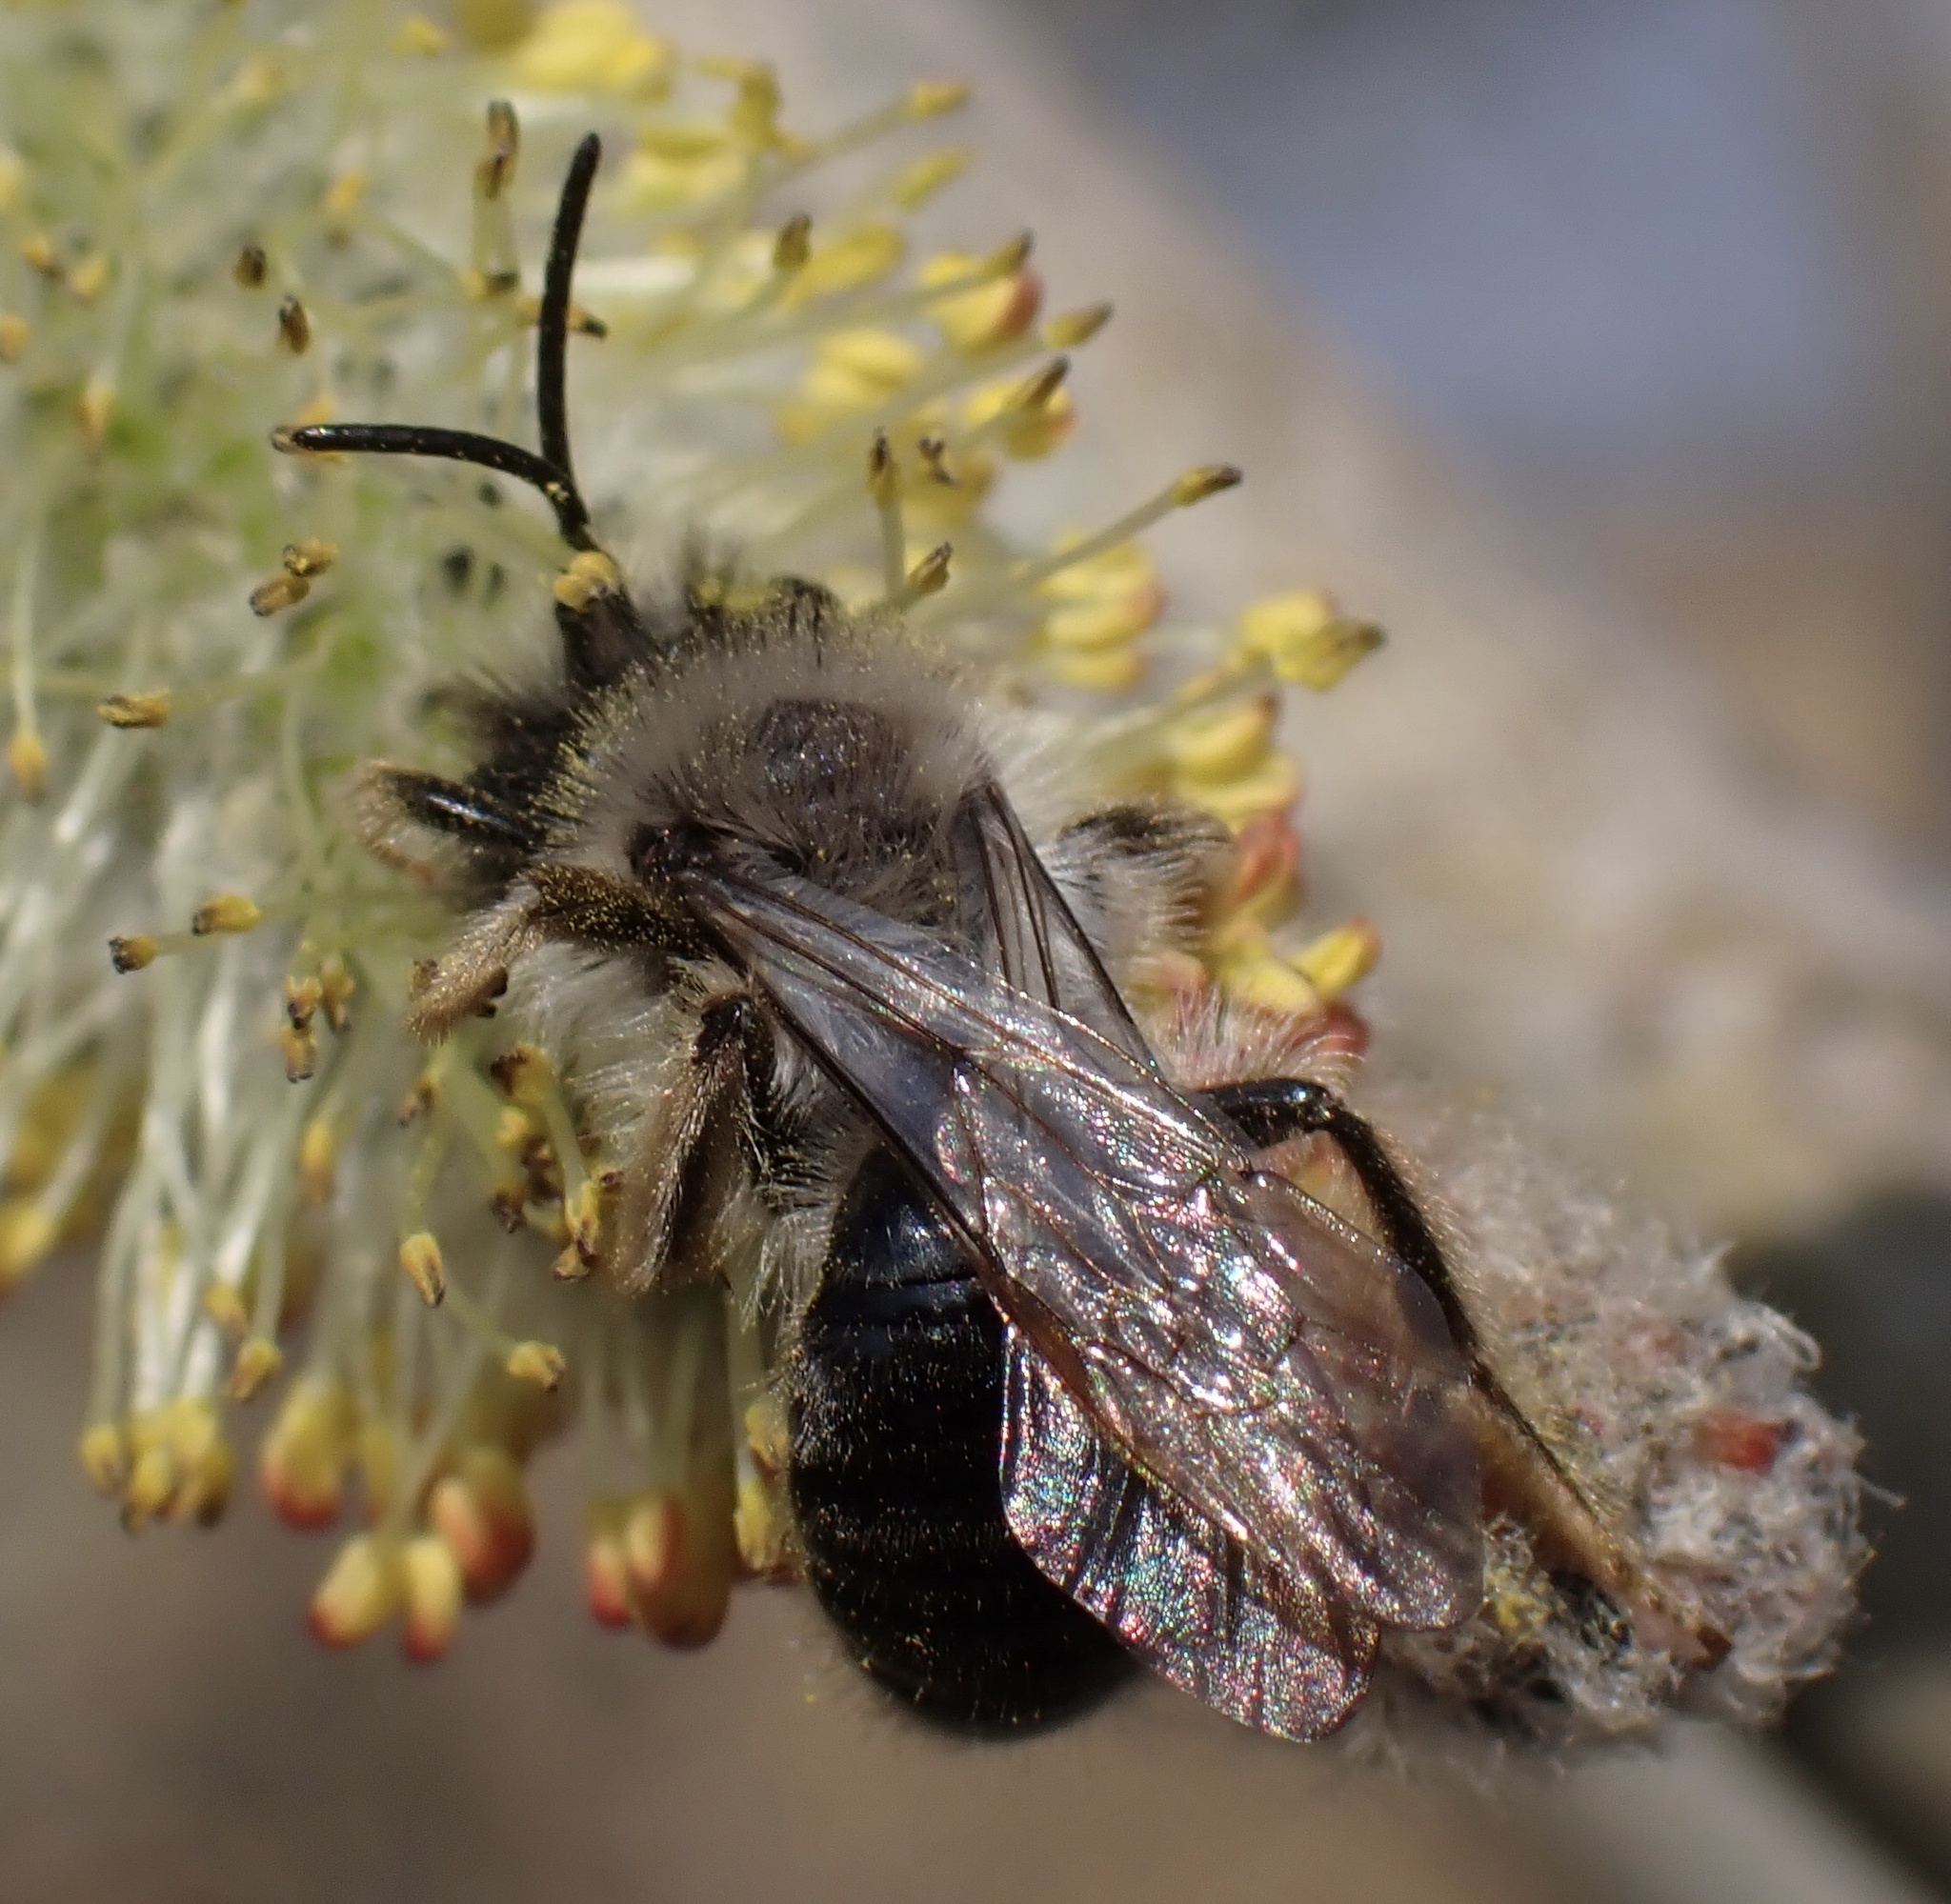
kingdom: Animalia
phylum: Arthropoda
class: Insecta
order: Hymenoptera
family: Andrenidae
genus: Andrena
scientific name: Andrena vaga
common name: Grey-backed mining bee
